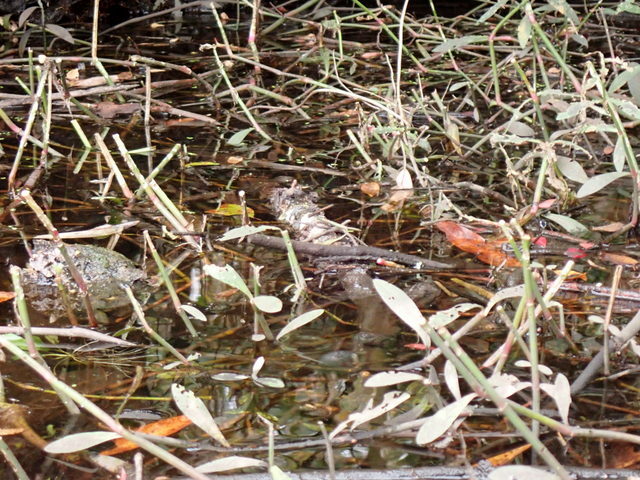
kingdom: Plantae
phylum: Tracheophyta
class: Magnoliopsida
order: Caryophyllales
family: Amaranthaceae
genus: Alternanthera
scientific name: Alternanthera philoxeroides
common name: Alligatorweed
